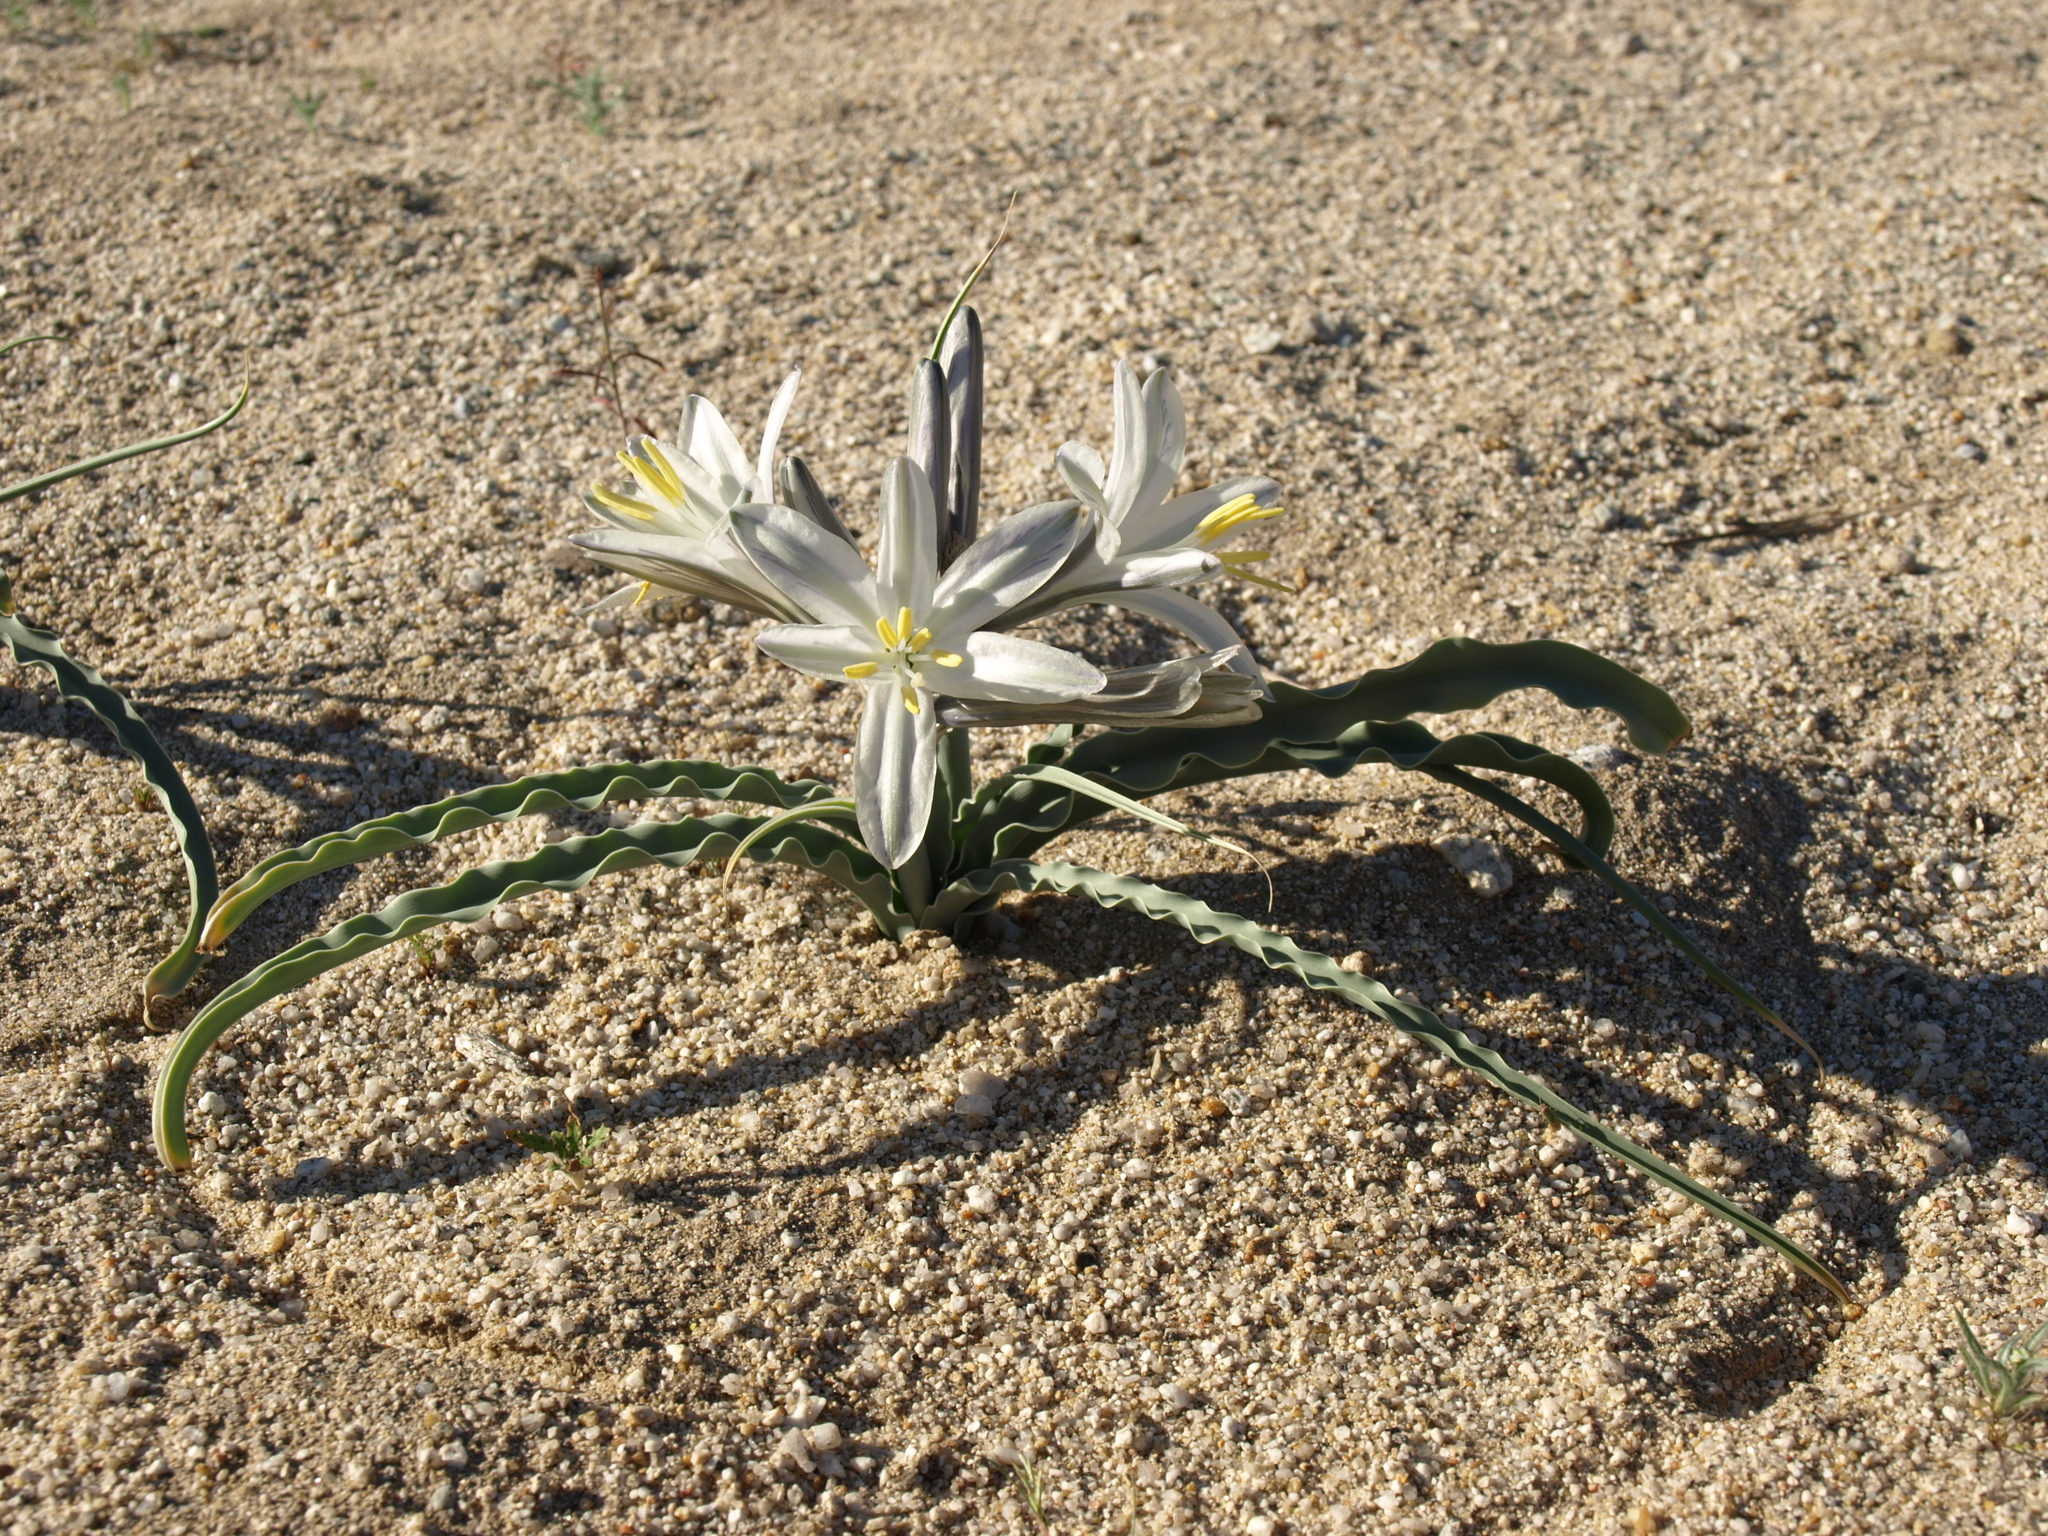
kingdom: Plantae
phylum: Tracheophyta
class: Liliopsida
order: Asparagales
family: Asparagaceae
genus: Hesperocallis
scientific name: Hesperocallis undulata
